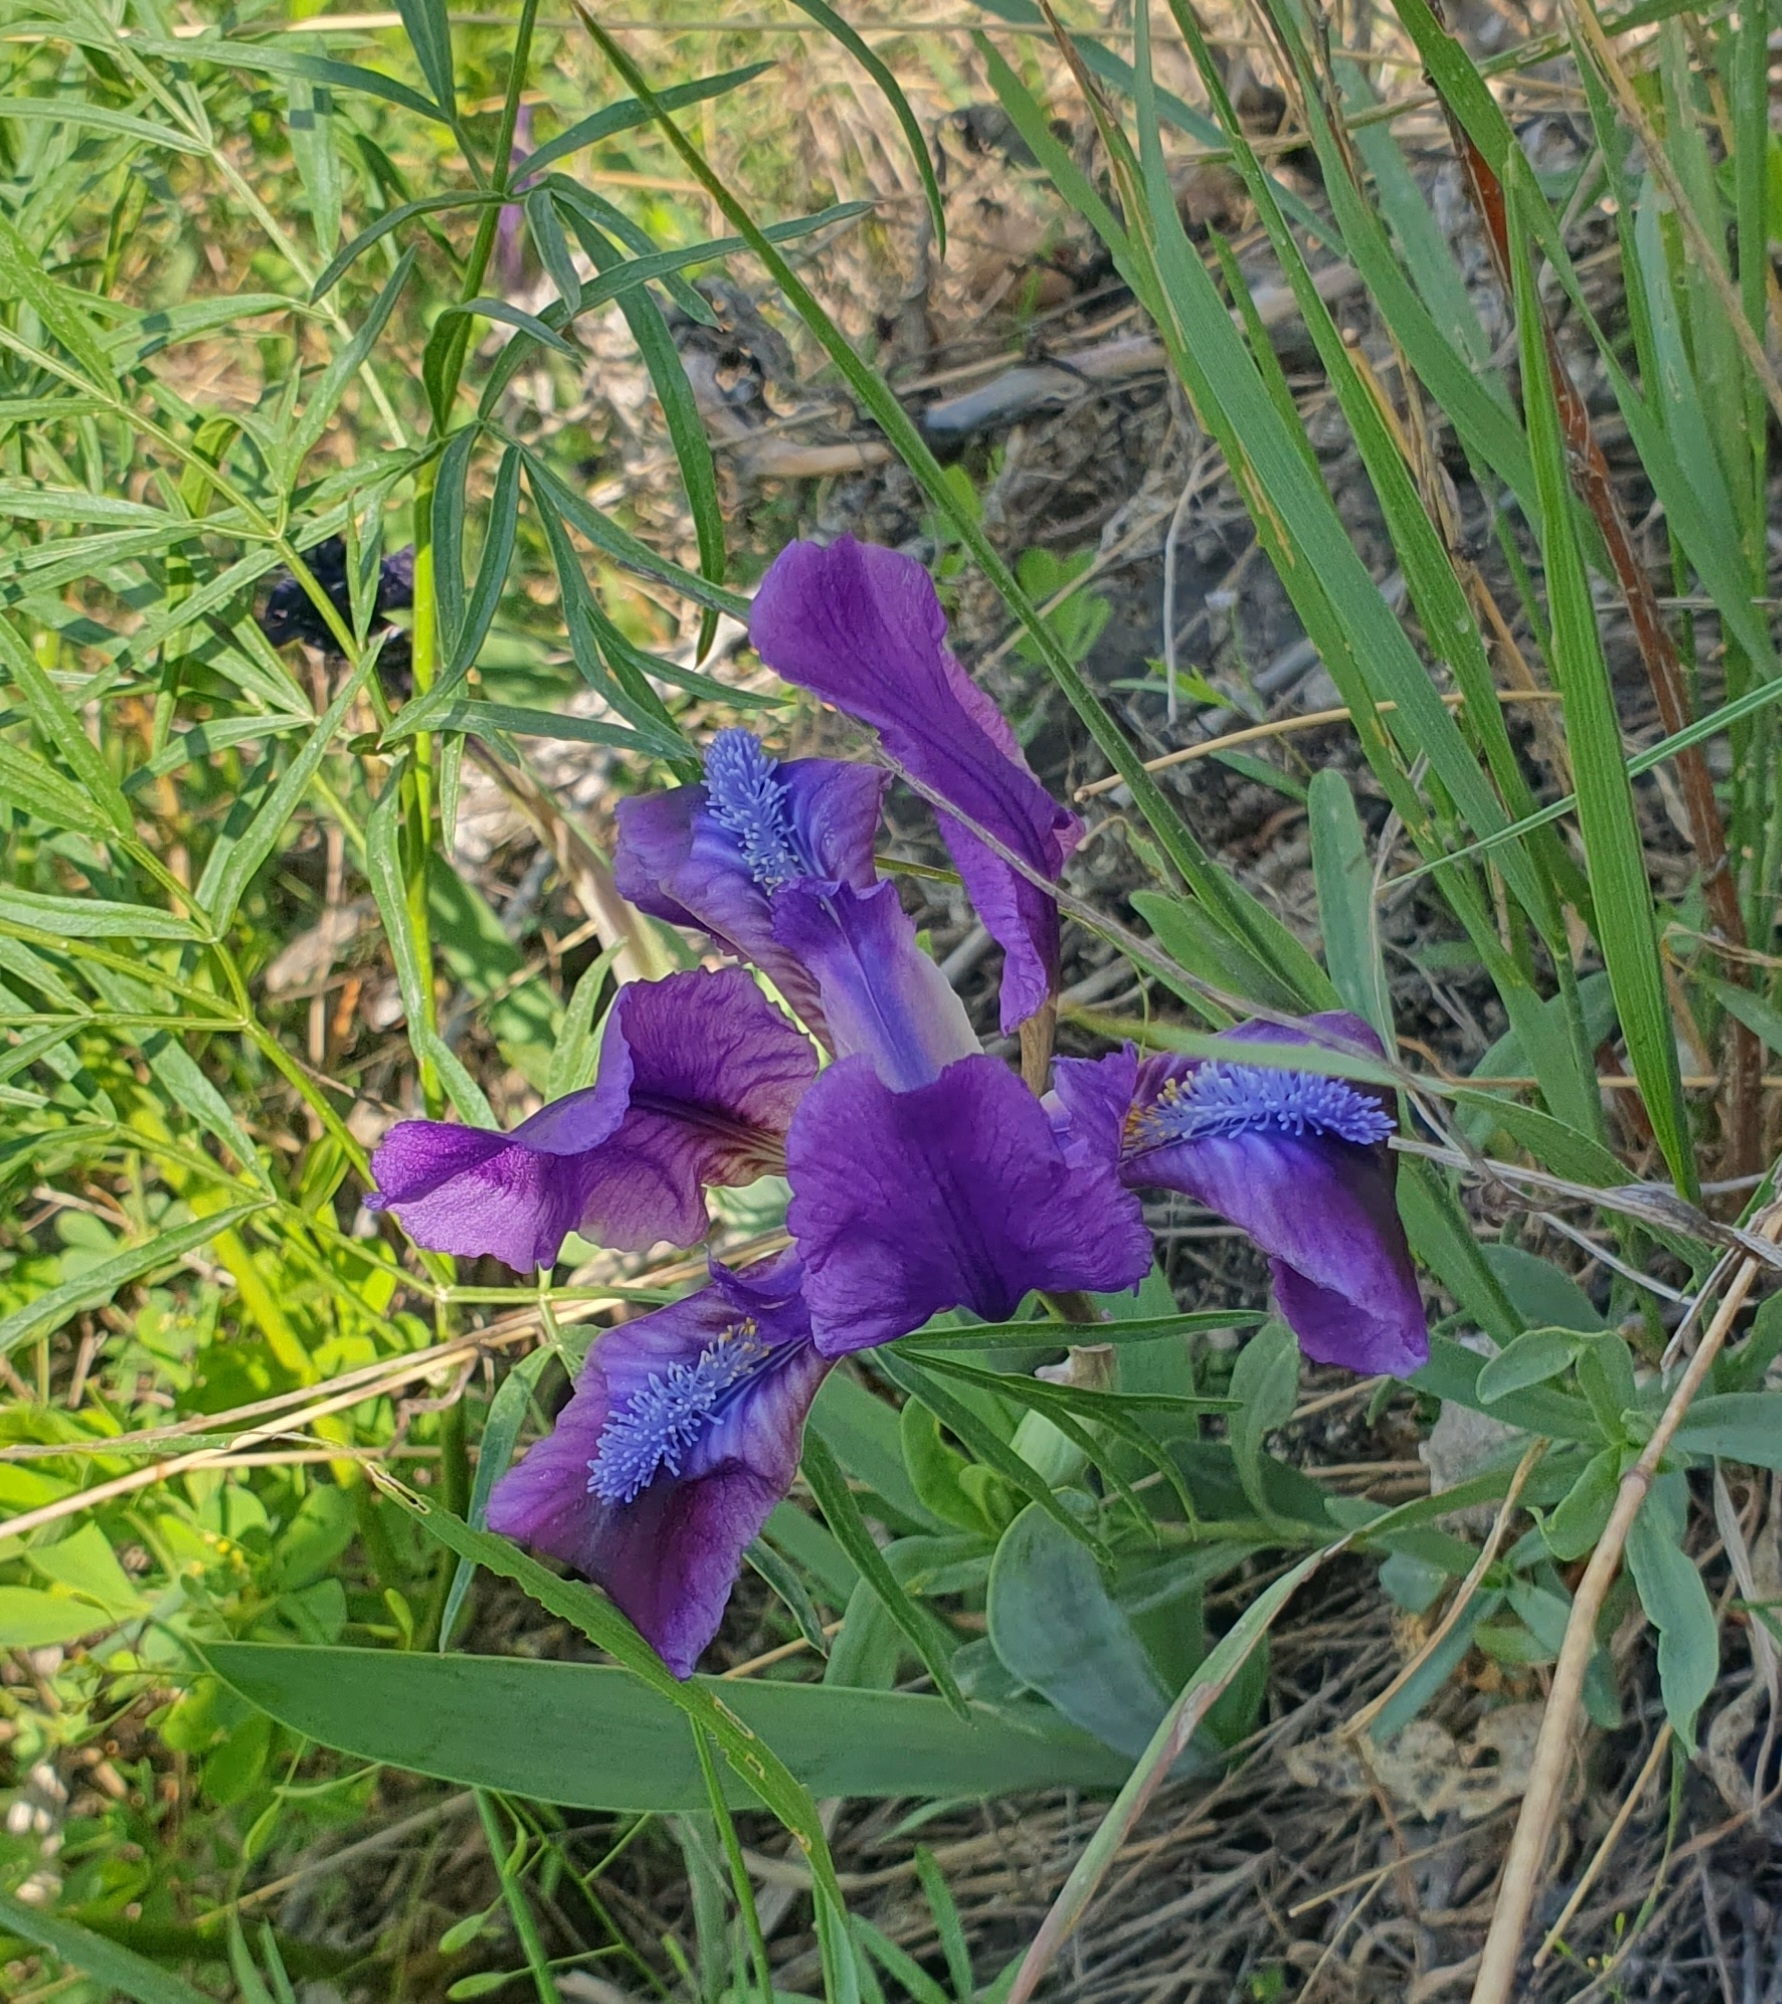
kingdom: Plantae
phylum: Tracheophyta
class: Liliopsida
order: Asparagales
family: Iridaceae
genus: Iris
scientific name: Iris pumila
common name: Dwarf iris
